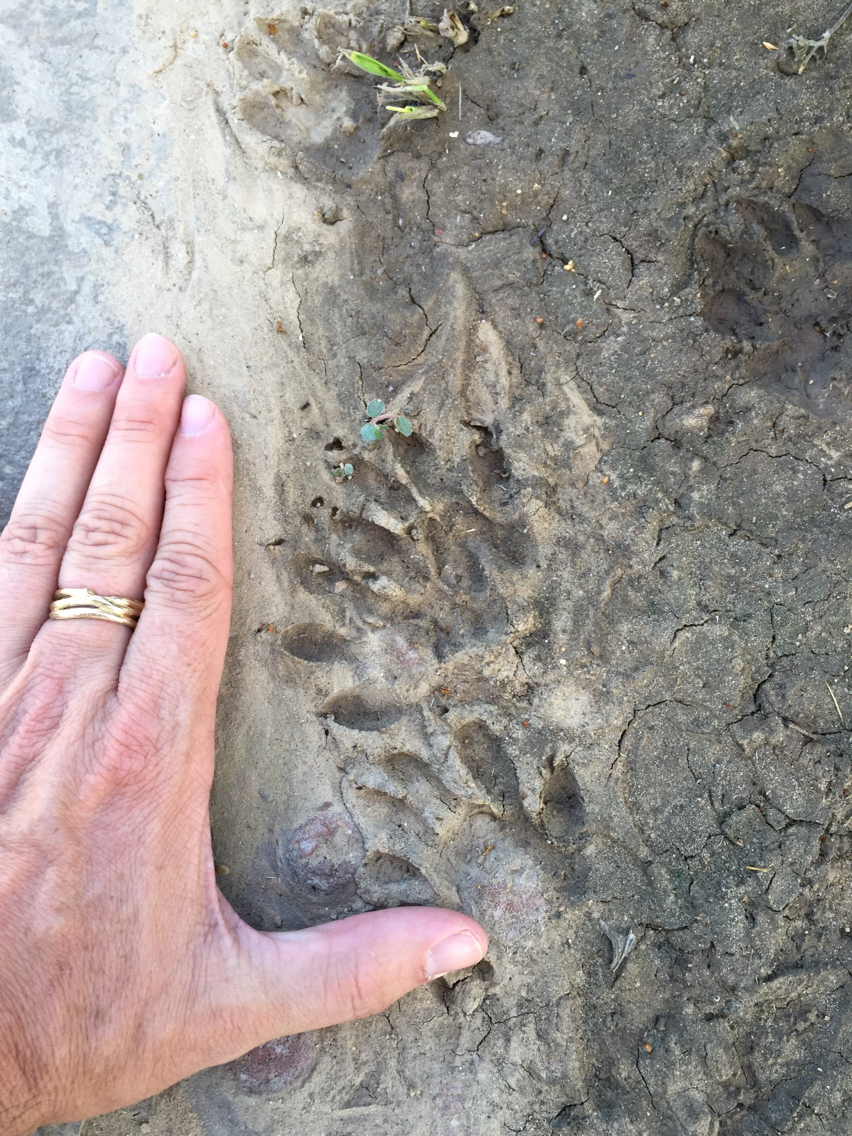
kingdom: Animalia
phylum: Chordata
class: Mammalia
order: Carnivora
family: Procyonidae
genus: Procyon
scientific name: Procyon lotor
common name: Raccoon
